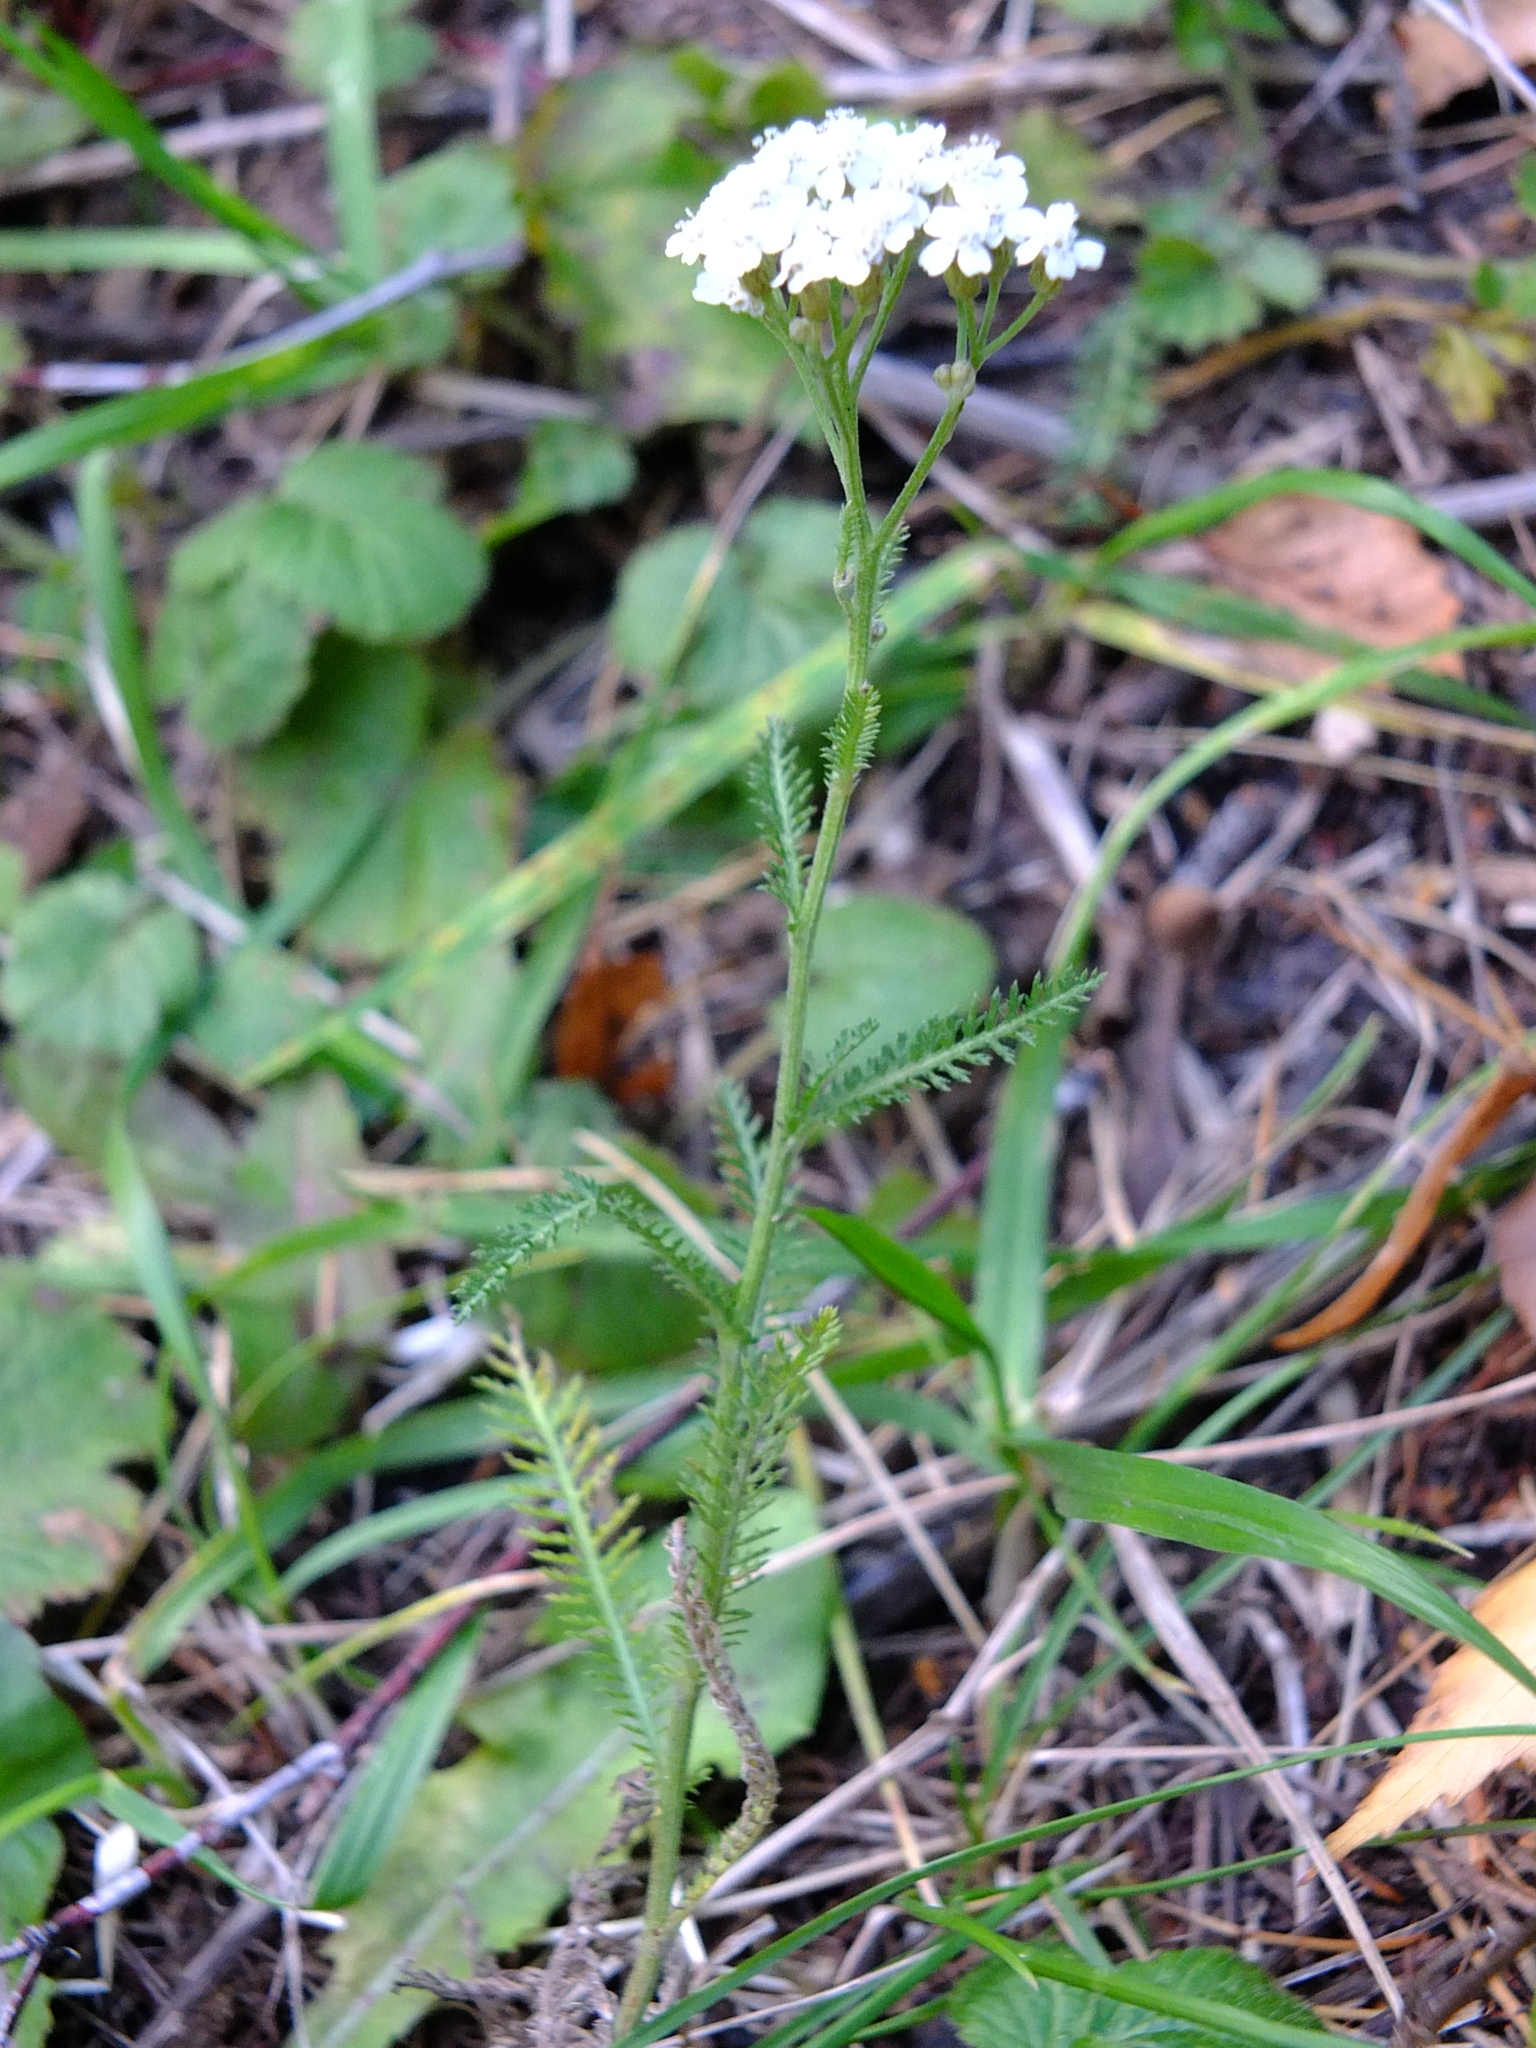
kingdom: Plantae
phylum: Tracheophyta
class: Magnoliopsida
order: Asterales
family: Asteraceae
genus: Achillea
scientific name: Achillea millefolium
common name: Yarrow
